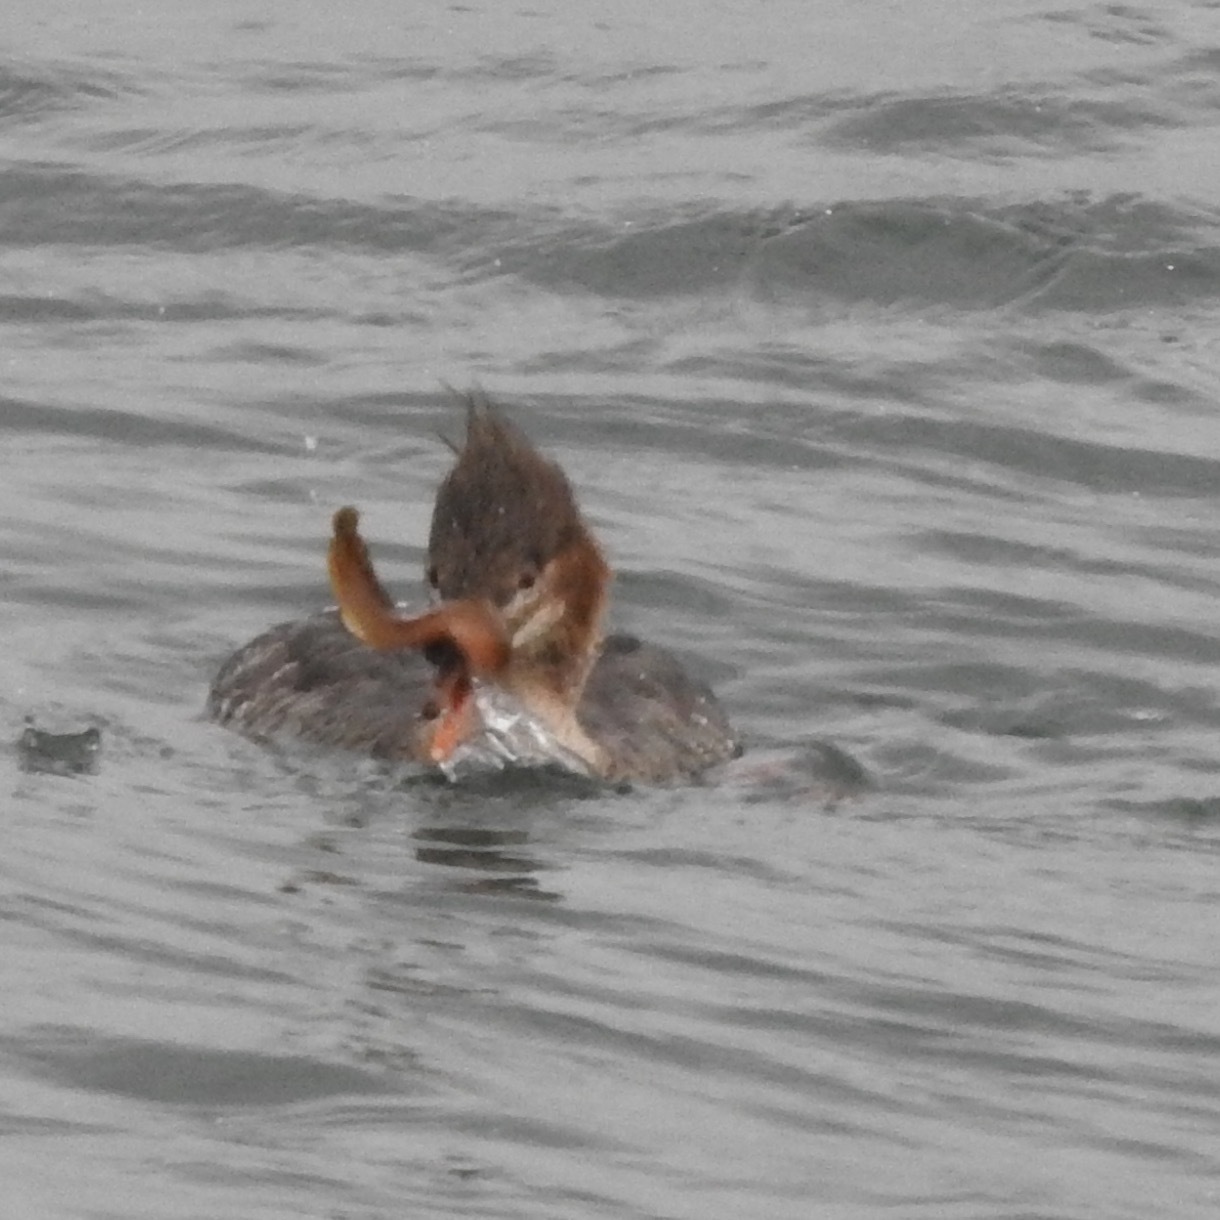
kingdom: Animalia
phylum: Chordata
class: Aves
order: Anseriformes
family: Anatidae
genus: Mergus
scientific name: Mergus serrator
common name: Red-breasted merganser
